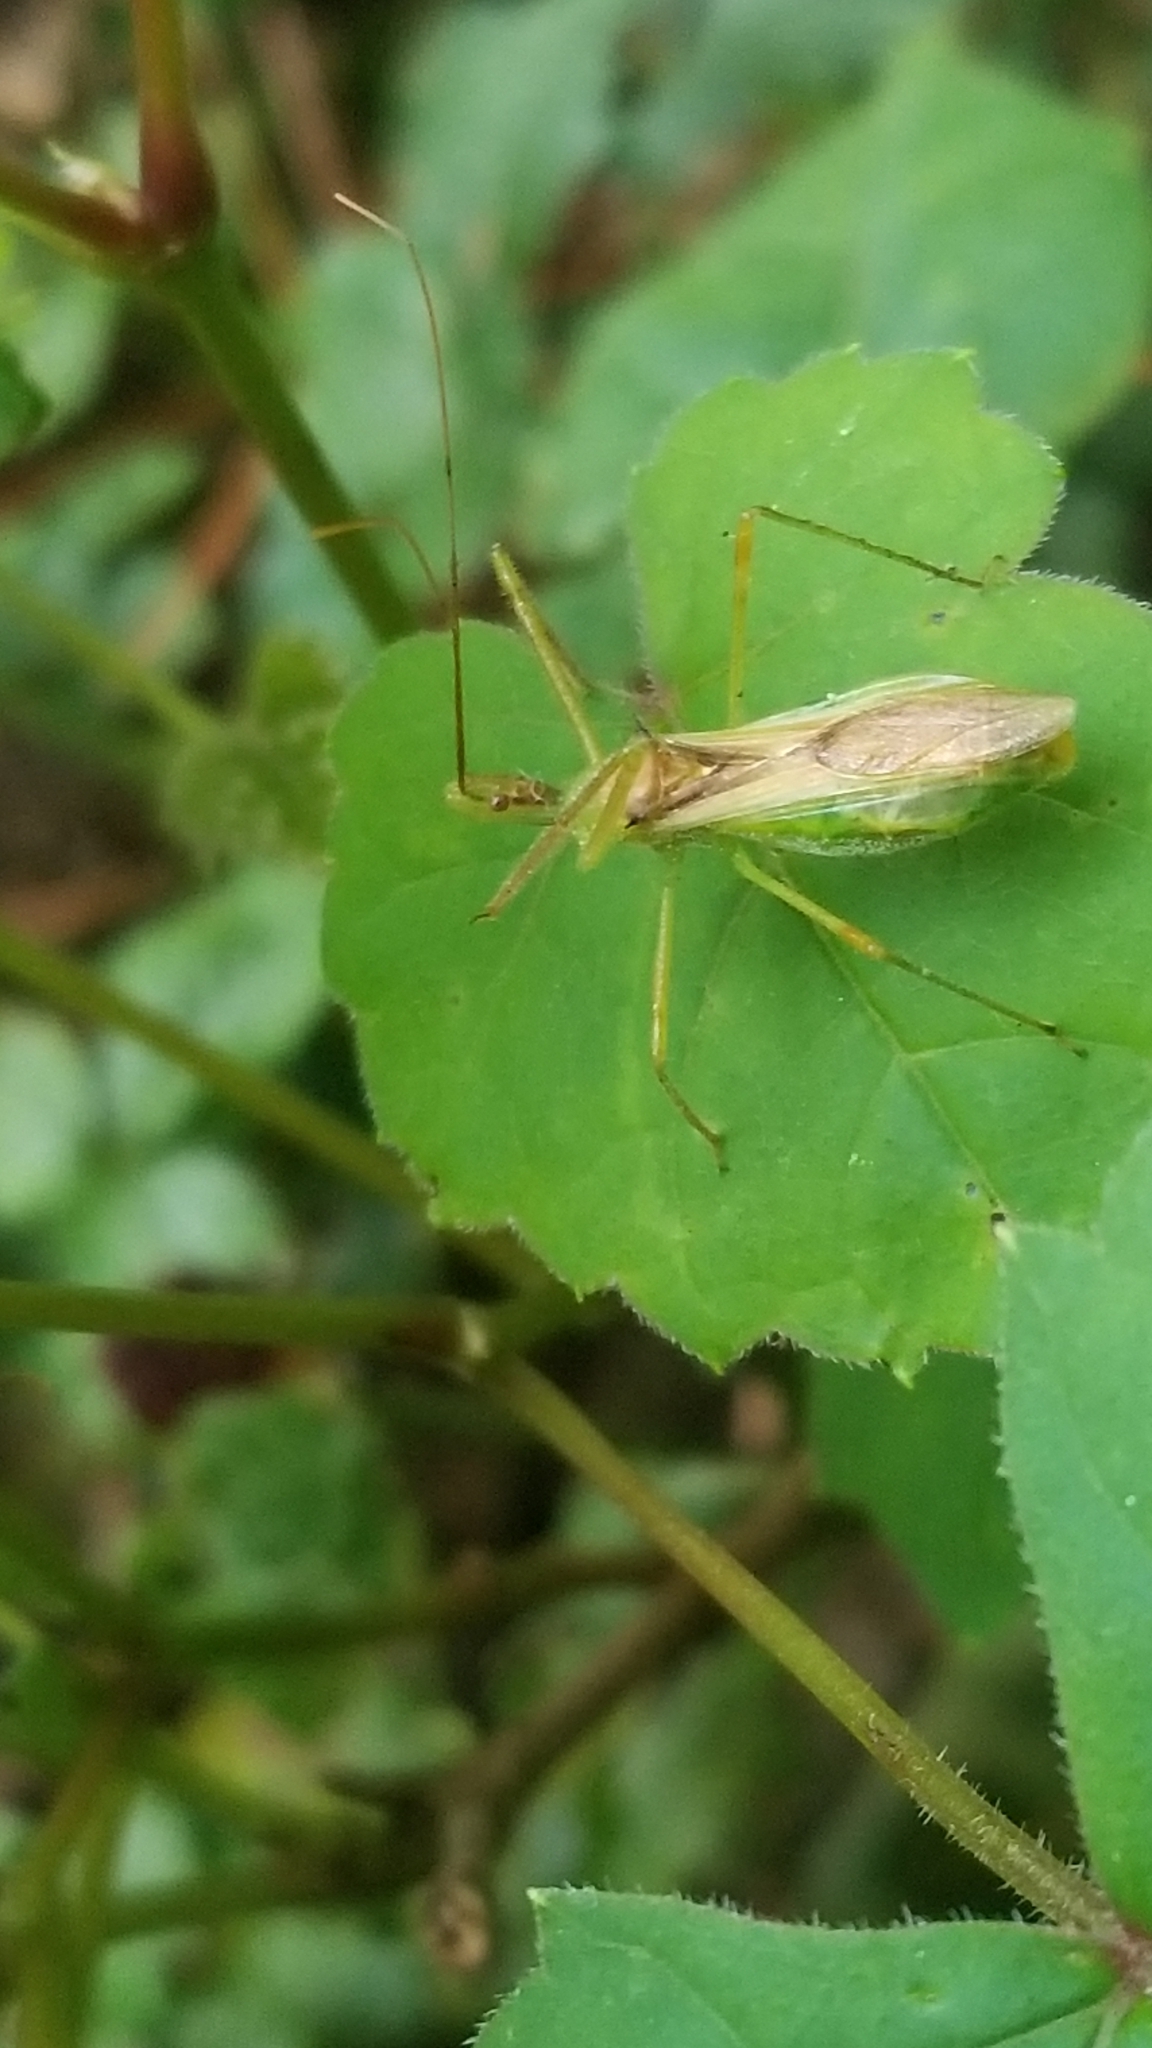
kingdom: Animalia
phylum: Arthropoda
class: Insecta
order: Hemiptera
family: Reduviidae
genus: Zelus
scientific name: Zelus luridus
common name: Pale green assassin bug
